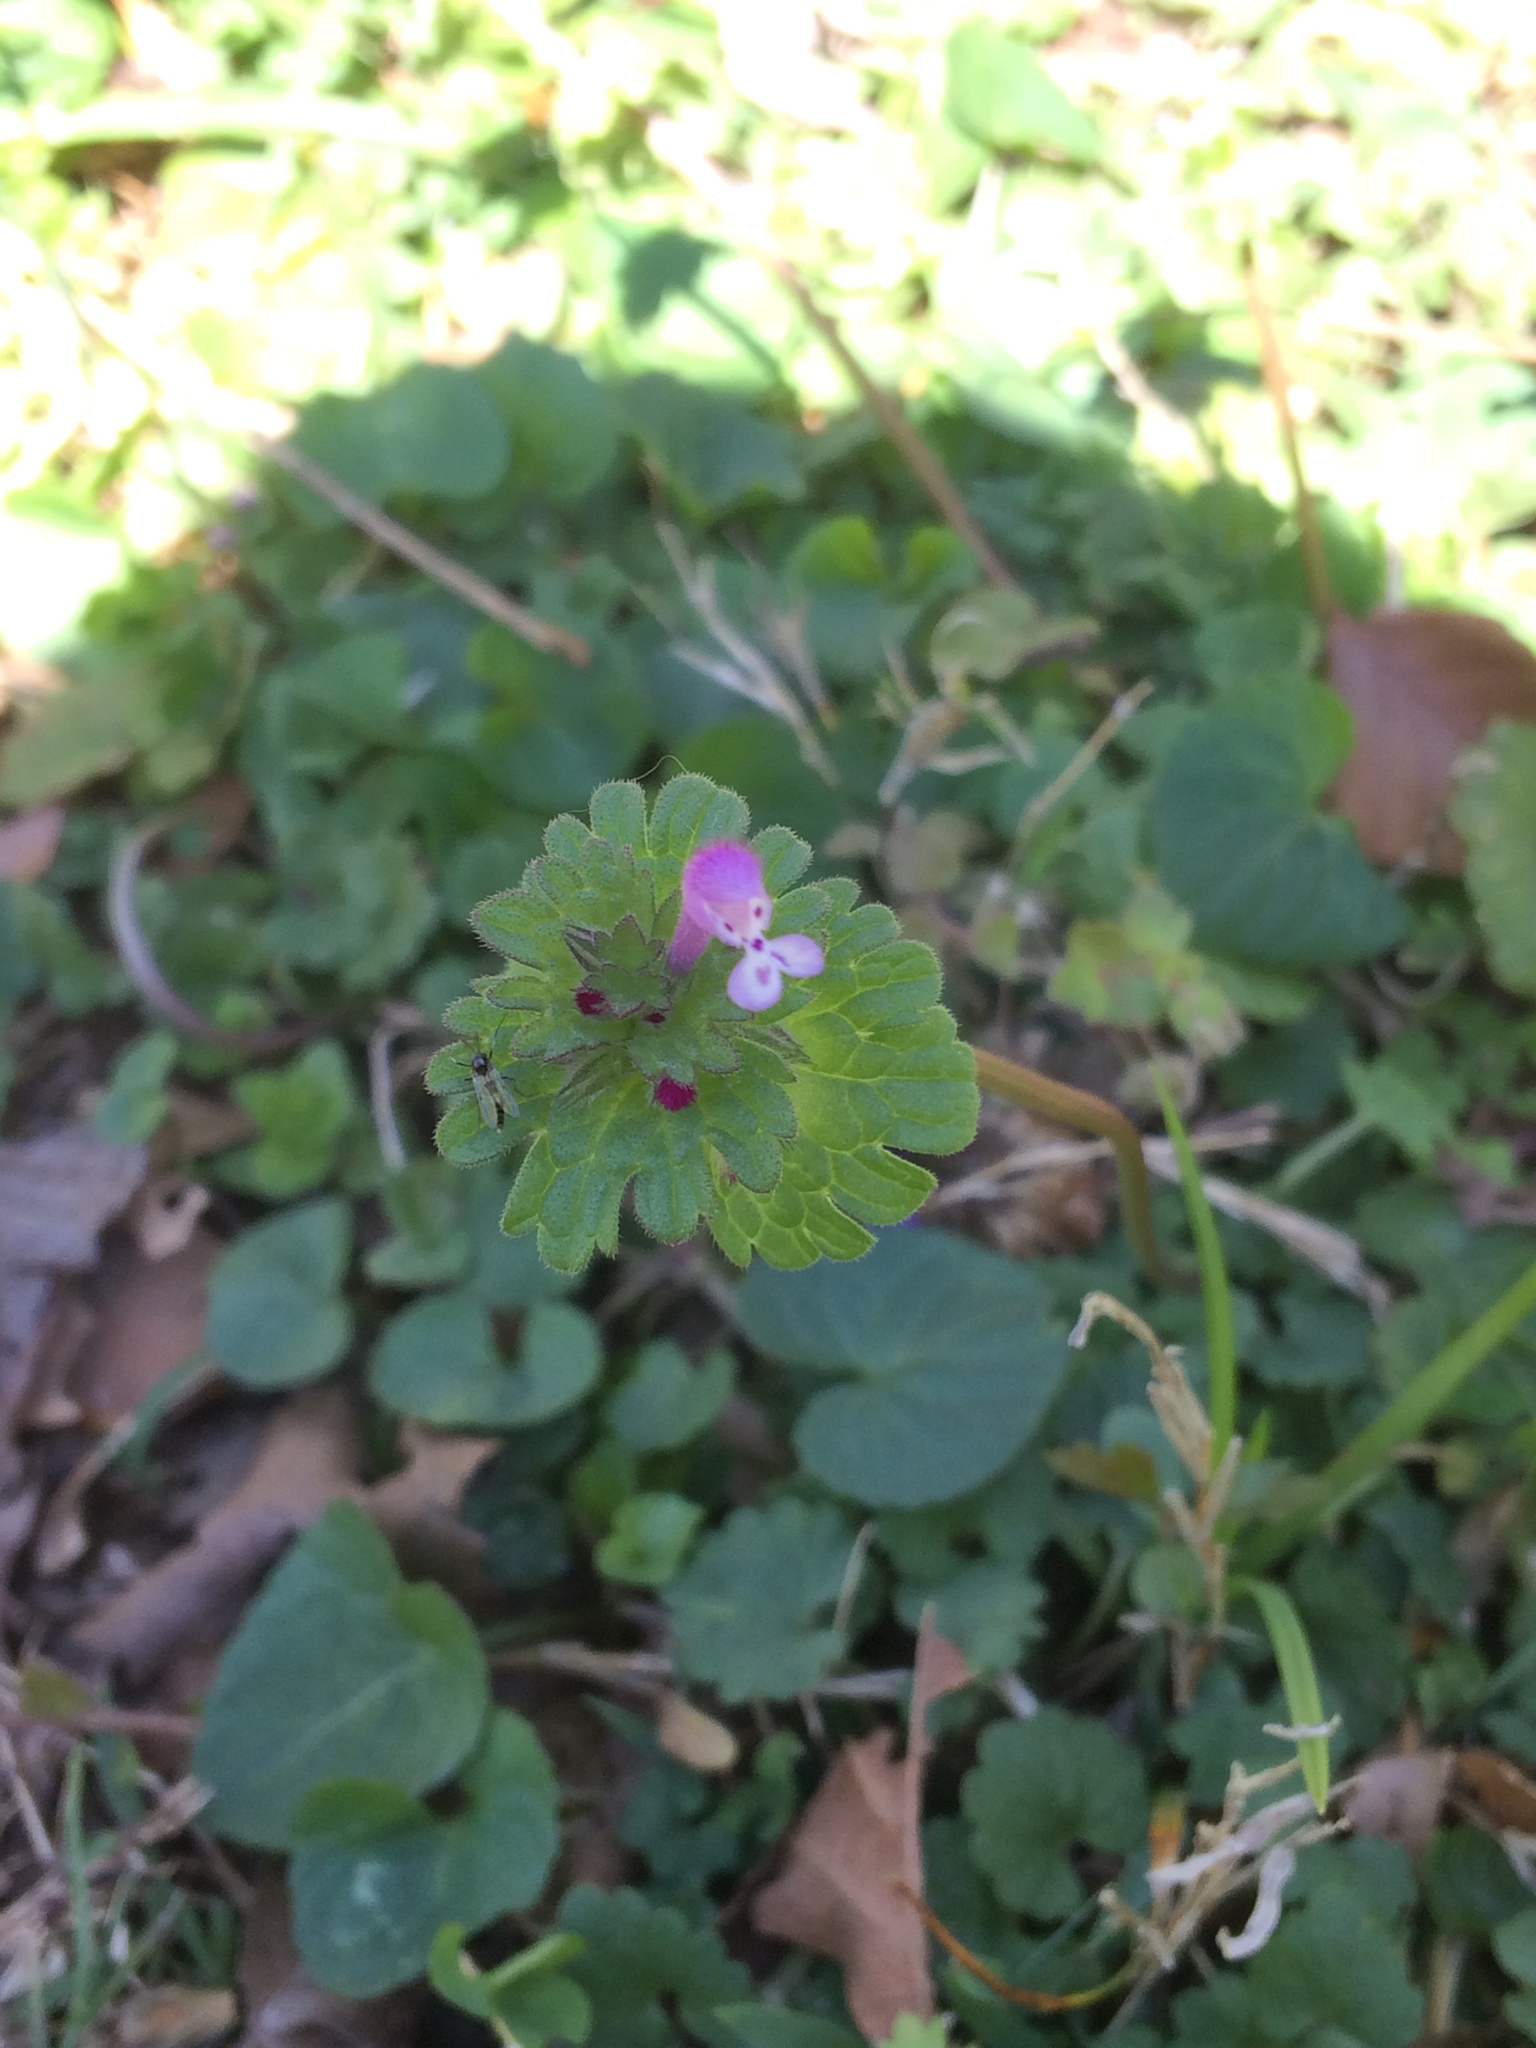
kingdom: Plantae
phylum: Tracheophyta
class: Magnoliopsida
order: Lamiales
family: Lamiaceae
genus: Lamium
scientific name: Lamium amplexicaule
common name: Henbit dead-nettle
